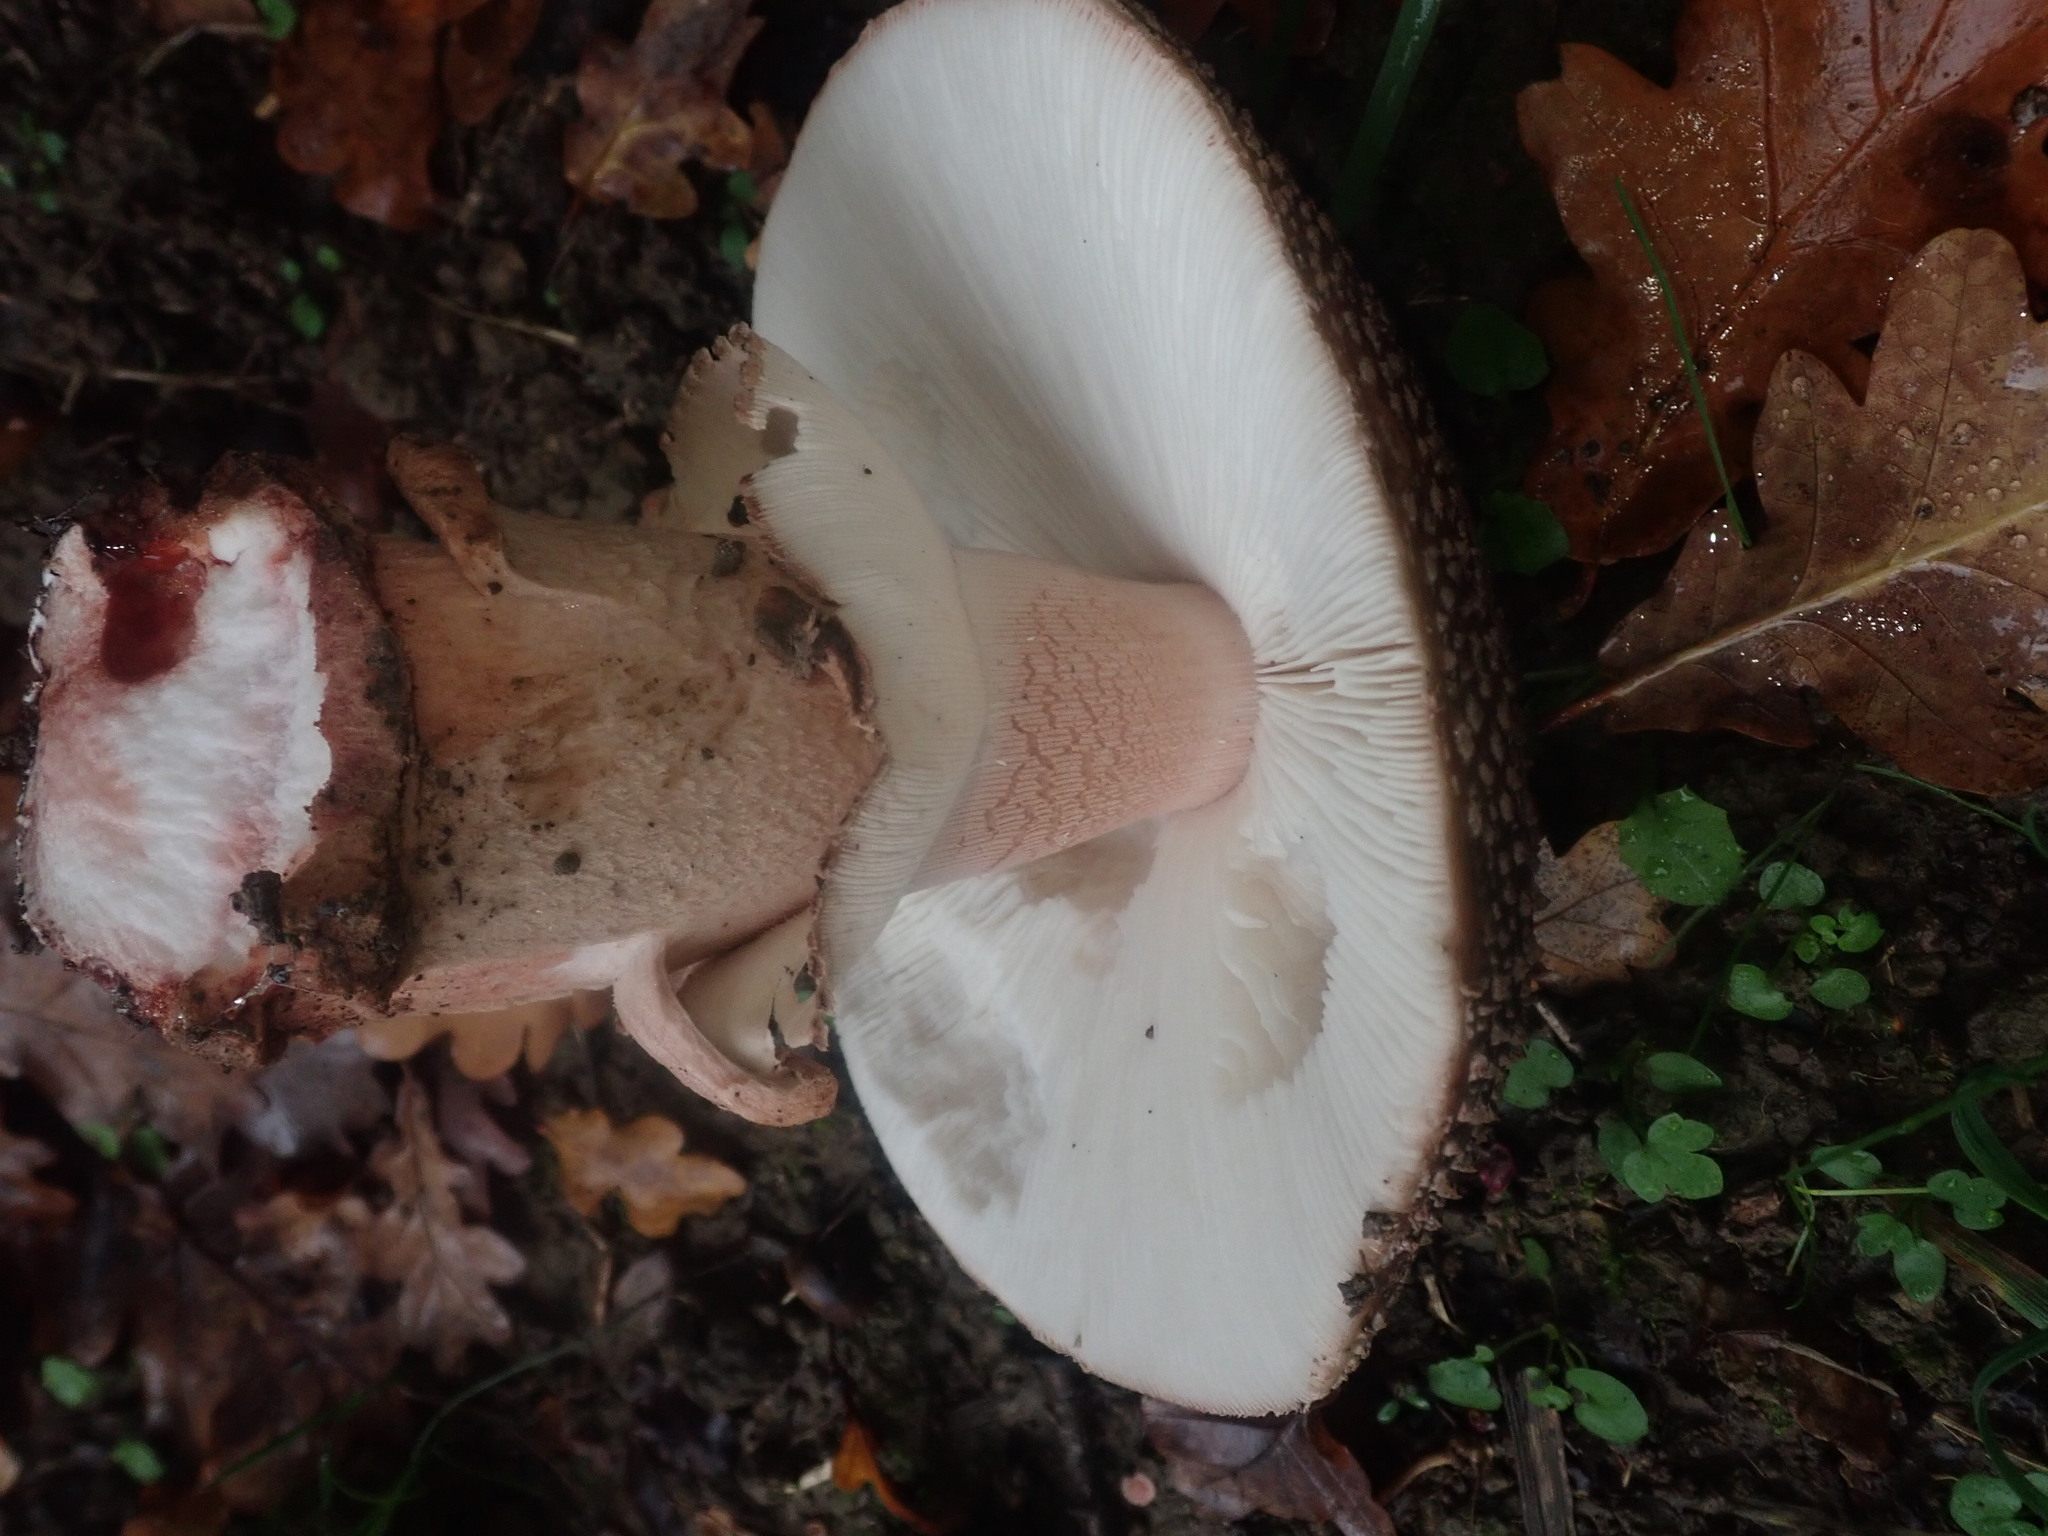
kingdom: Fungi
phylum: Basidiomycota
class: Agaricomycetes
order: Agaricales
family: Amanitaceae
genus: Amanita
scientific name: Amanita rubescens
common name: Blusher
